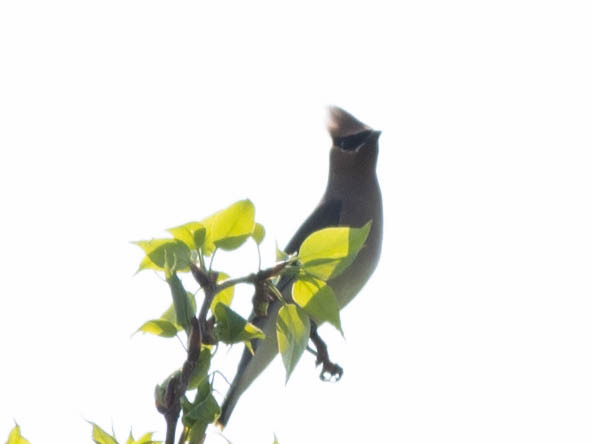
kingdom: Animalia
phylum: Chordata
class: Aves
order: Passeriformes
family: Bombycillidae
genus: Bombycilla
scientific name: Bombycilla cedrorum
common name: Cedar waxwing
